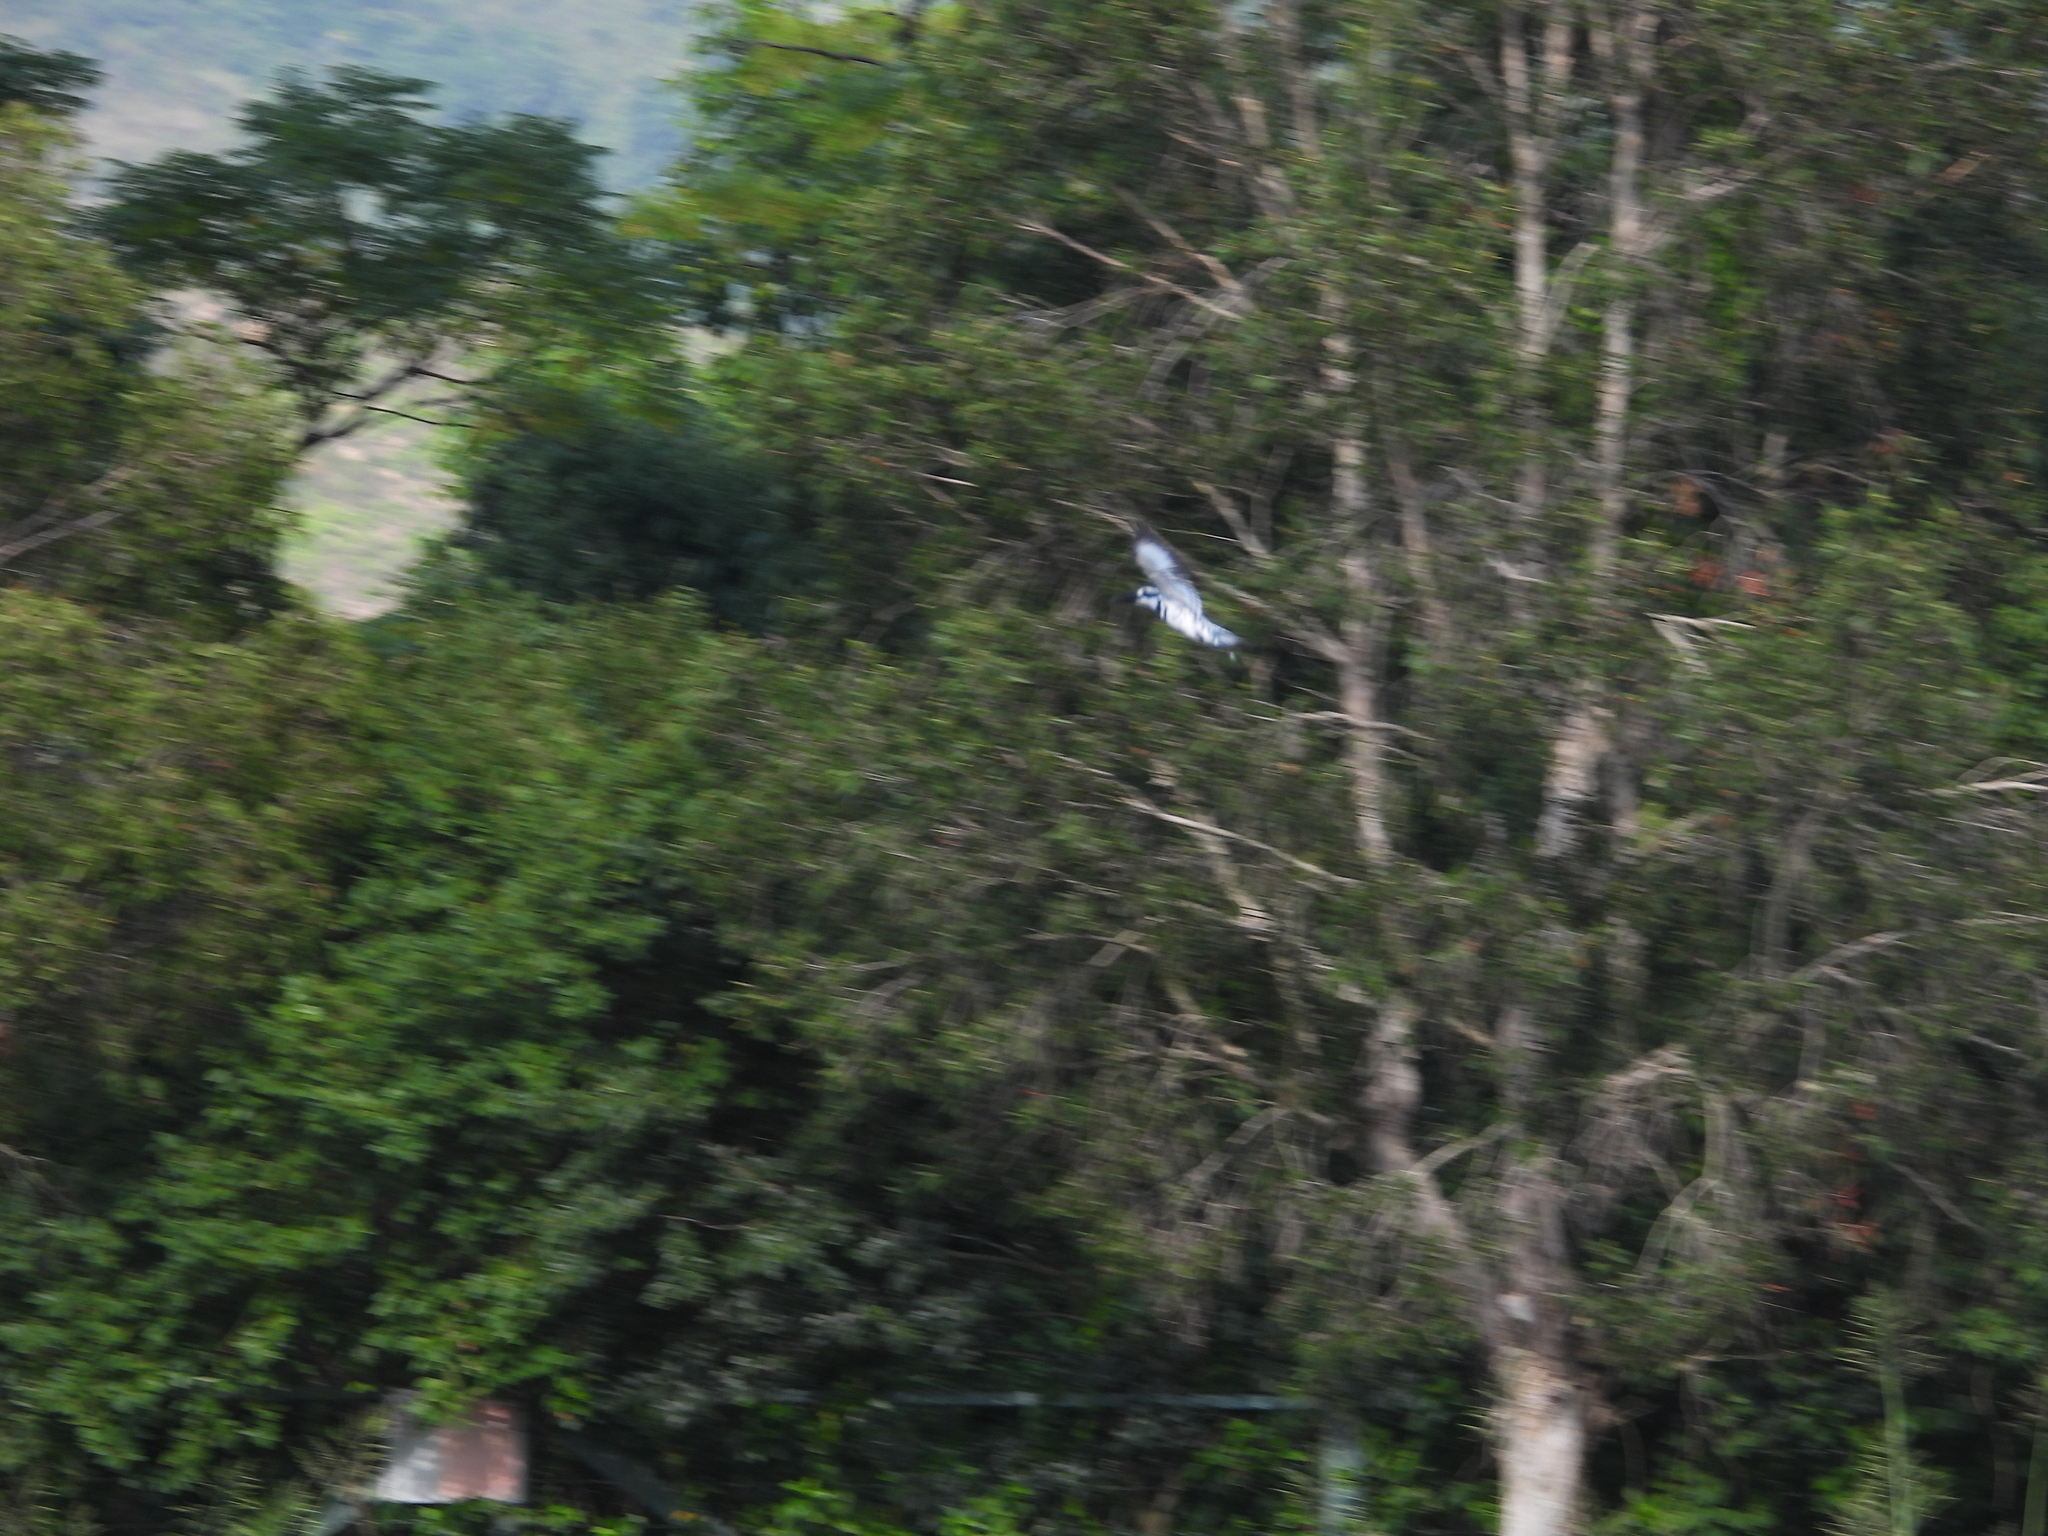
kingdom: Animalia
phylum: Chordata
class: Aves
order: Coraciiformes
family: Alcedinidae
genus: Ceryle
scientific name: Ceryle rudis
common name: Pied kingfisher
